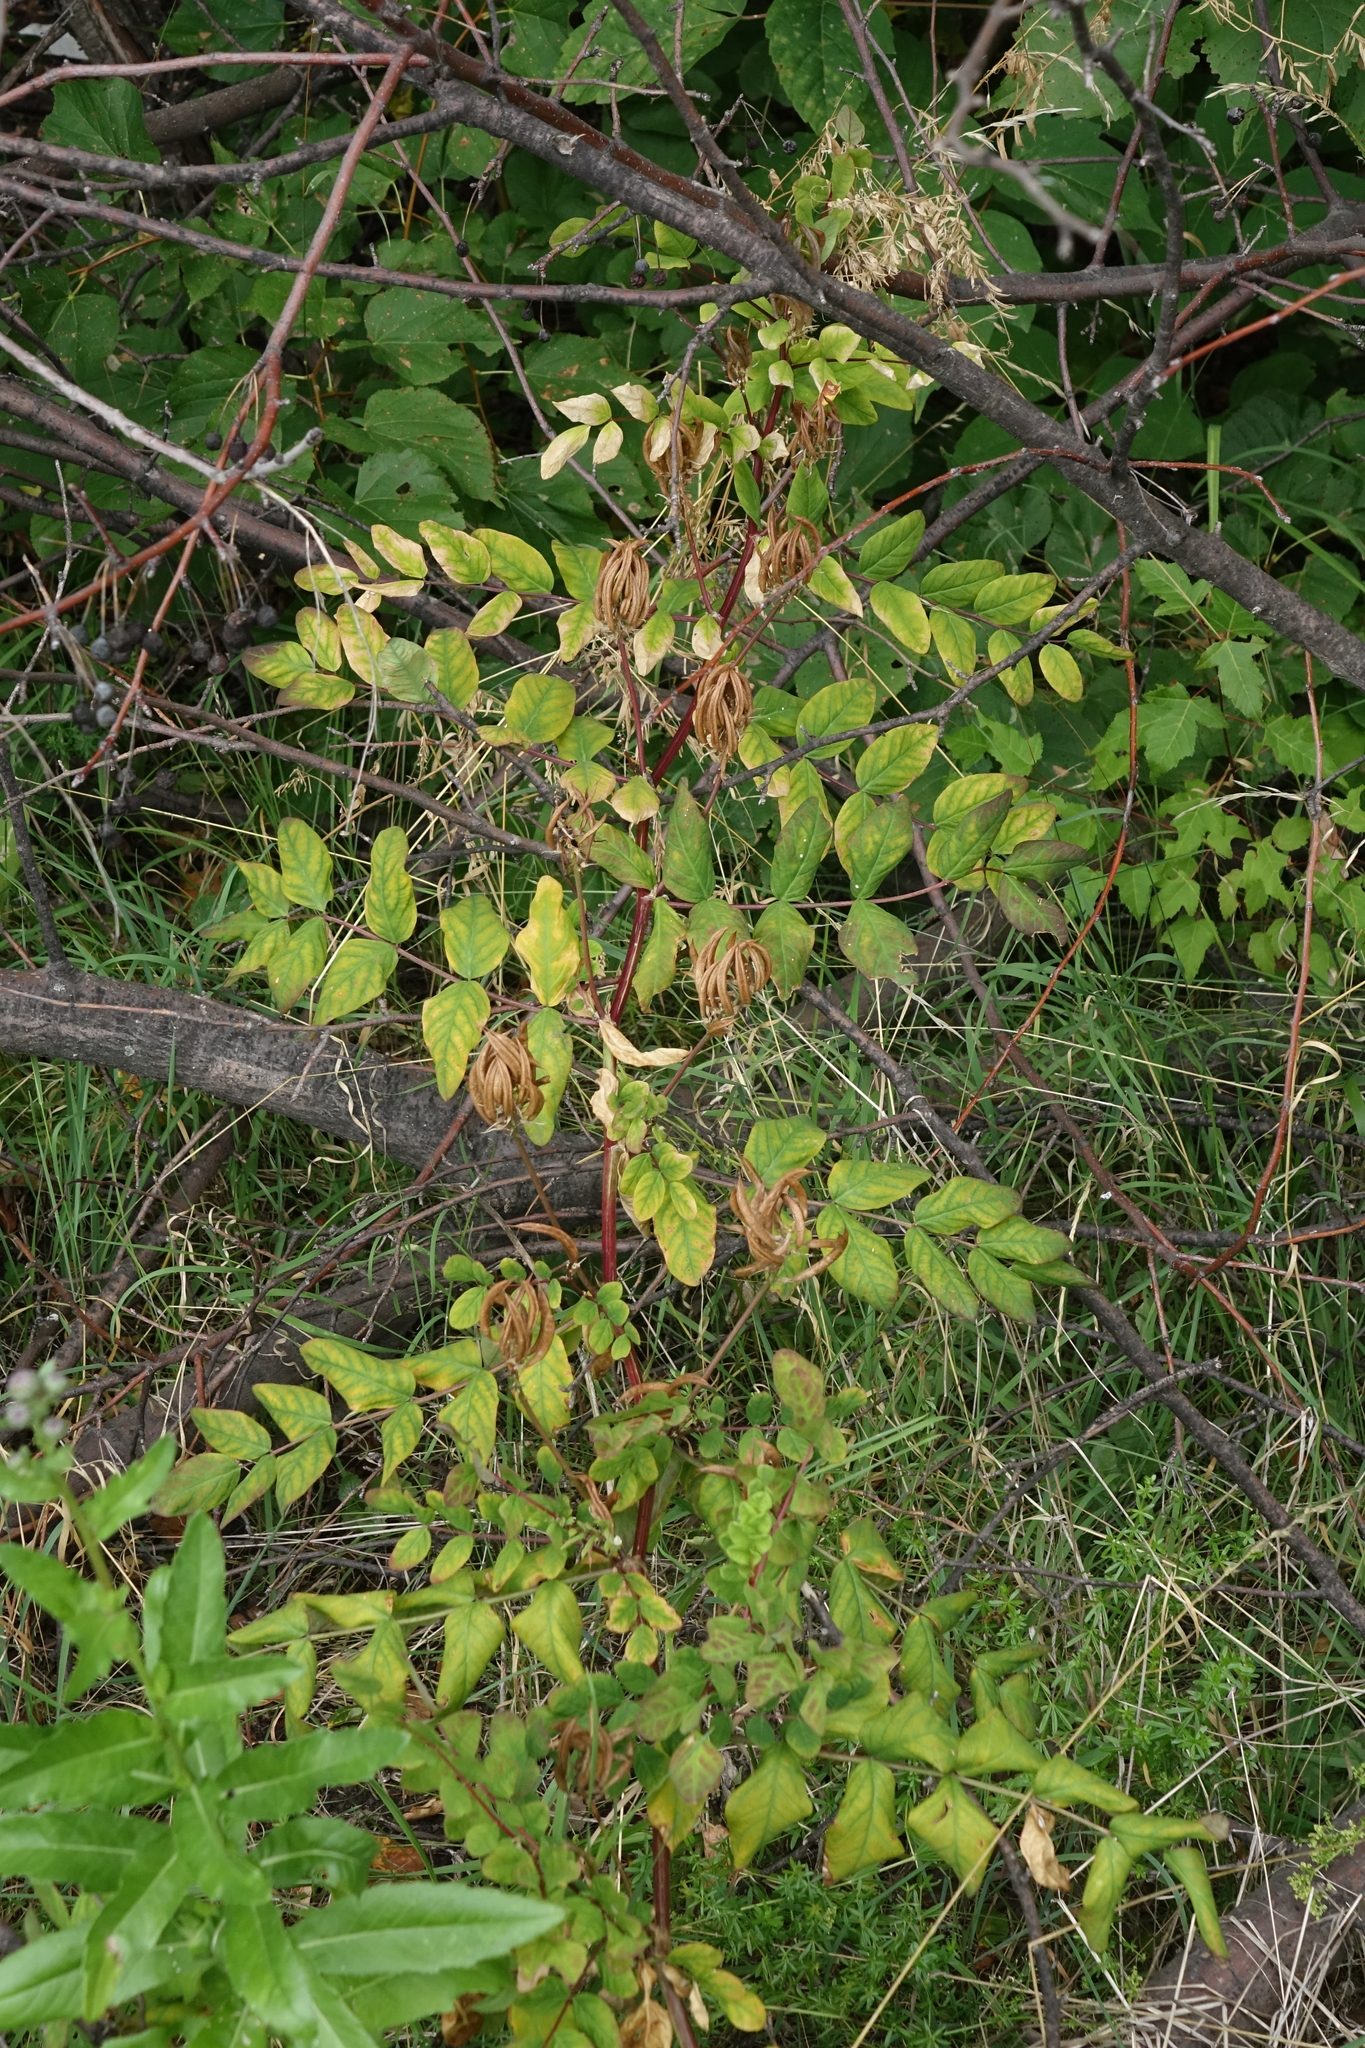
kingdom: Plantae
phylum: Tracheophyta
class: Magnoliopsida
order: Fabales
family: Fabaceae
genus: Astragalus
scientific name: Astragalus glycyphyllos
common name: Wild liquorice
